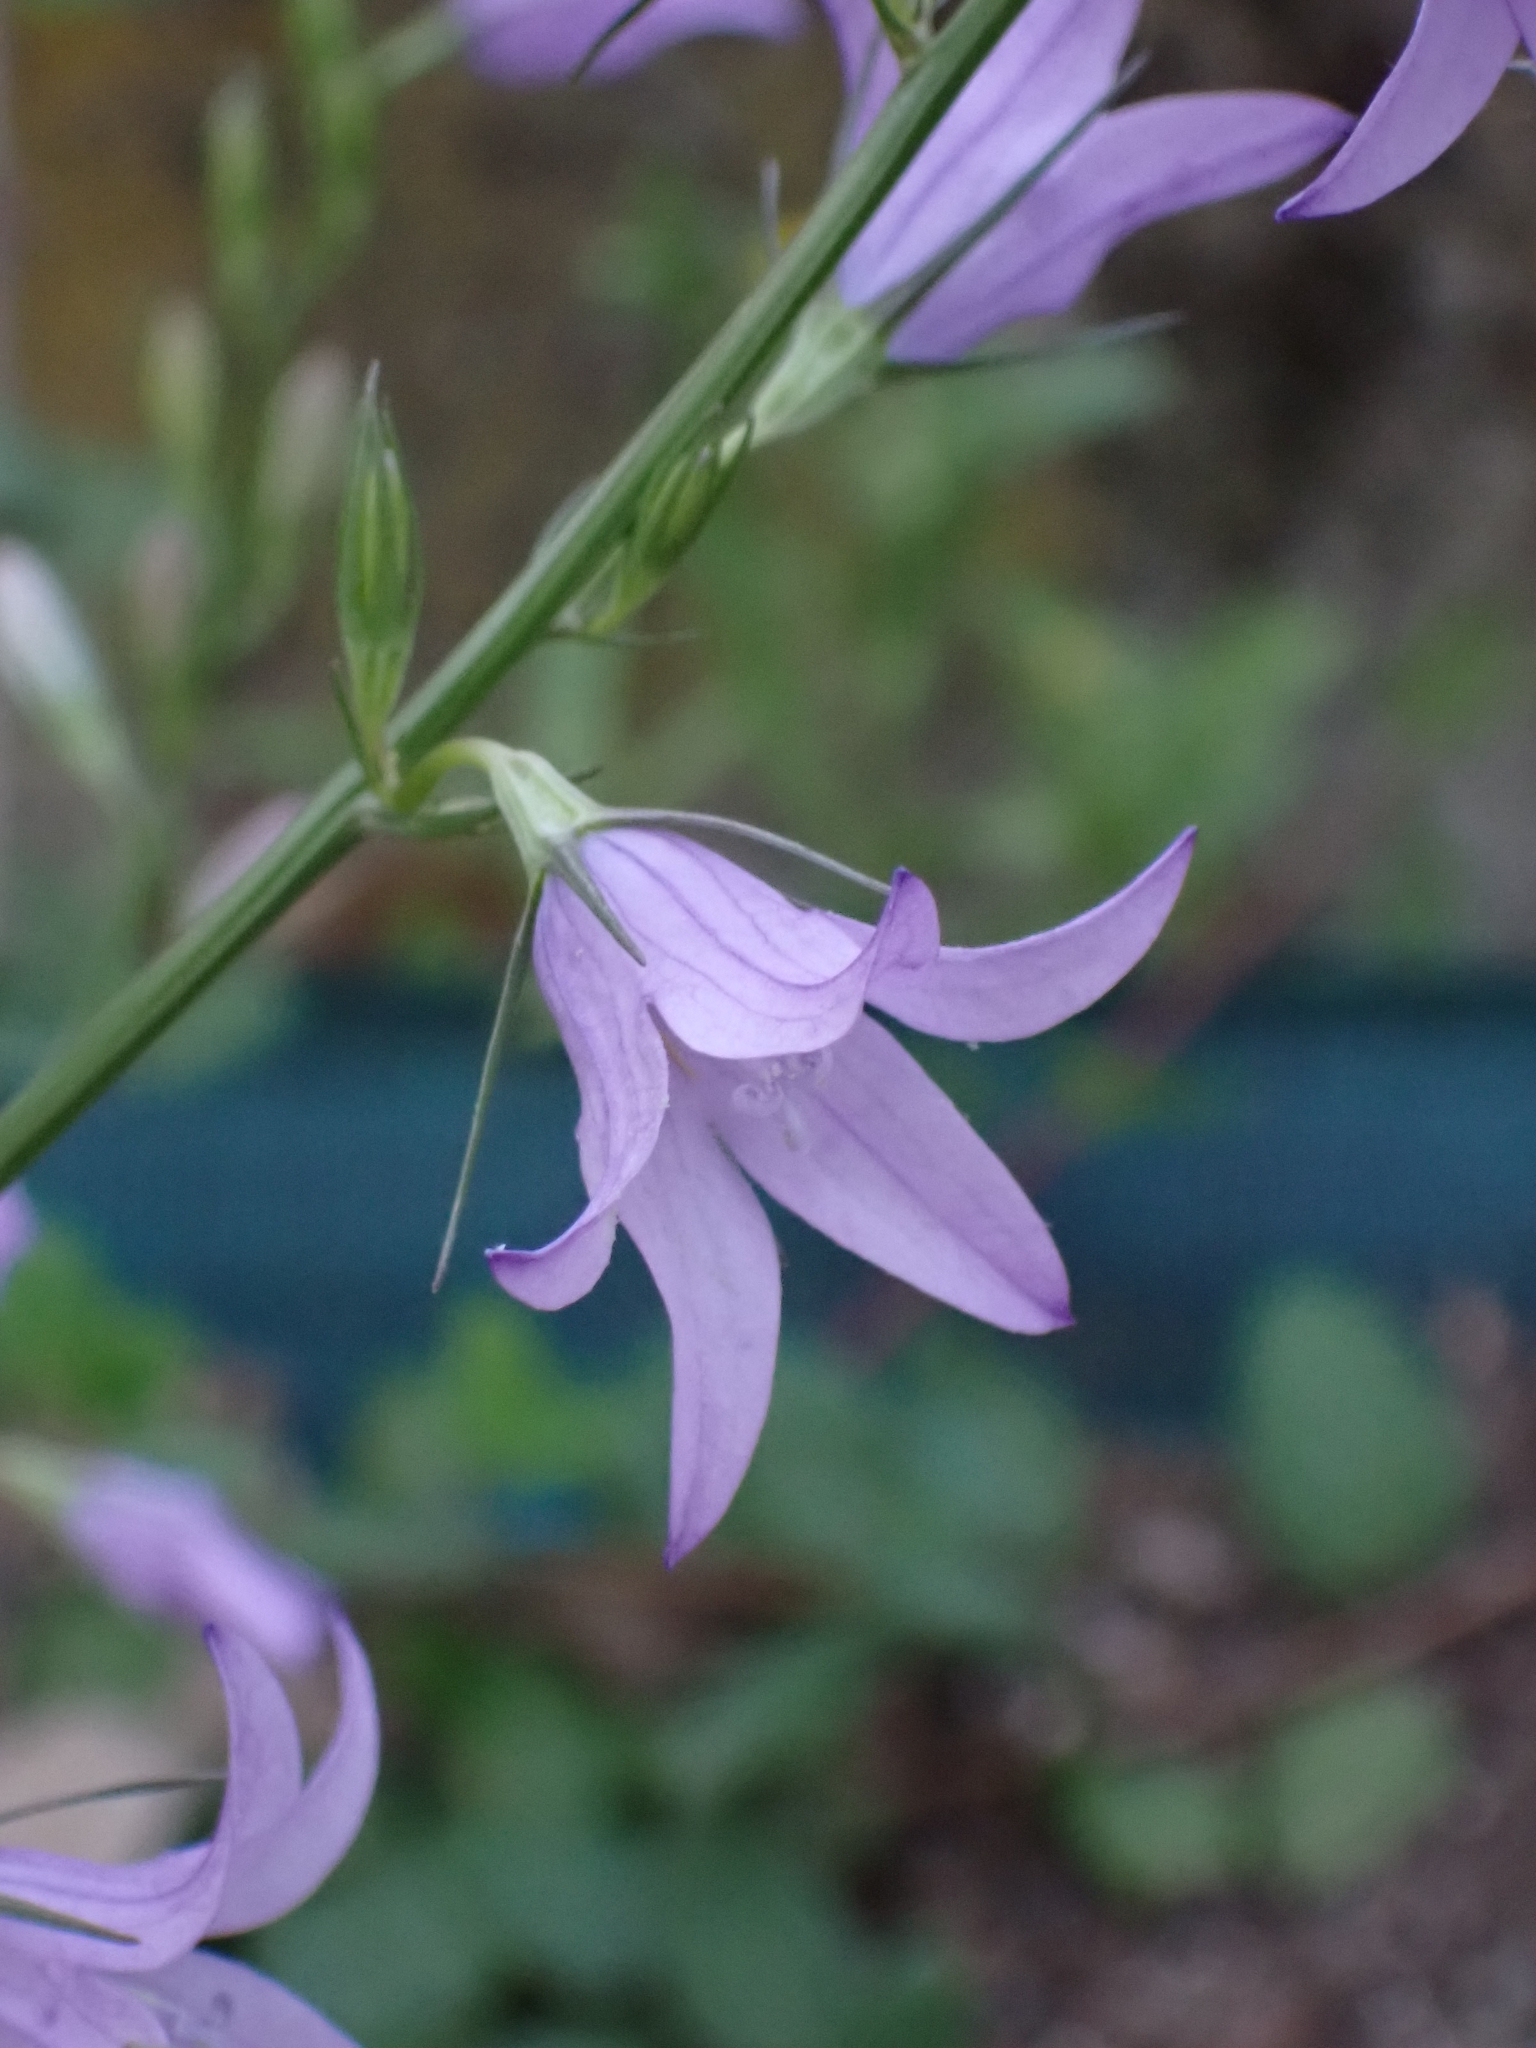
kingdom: Plantae
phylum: Tracheophyta
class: Magnoliopsida
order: Asterales
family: Campanulaceae
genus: Campanula
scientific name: Campanula rapunculus
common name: Rampion bellflower
